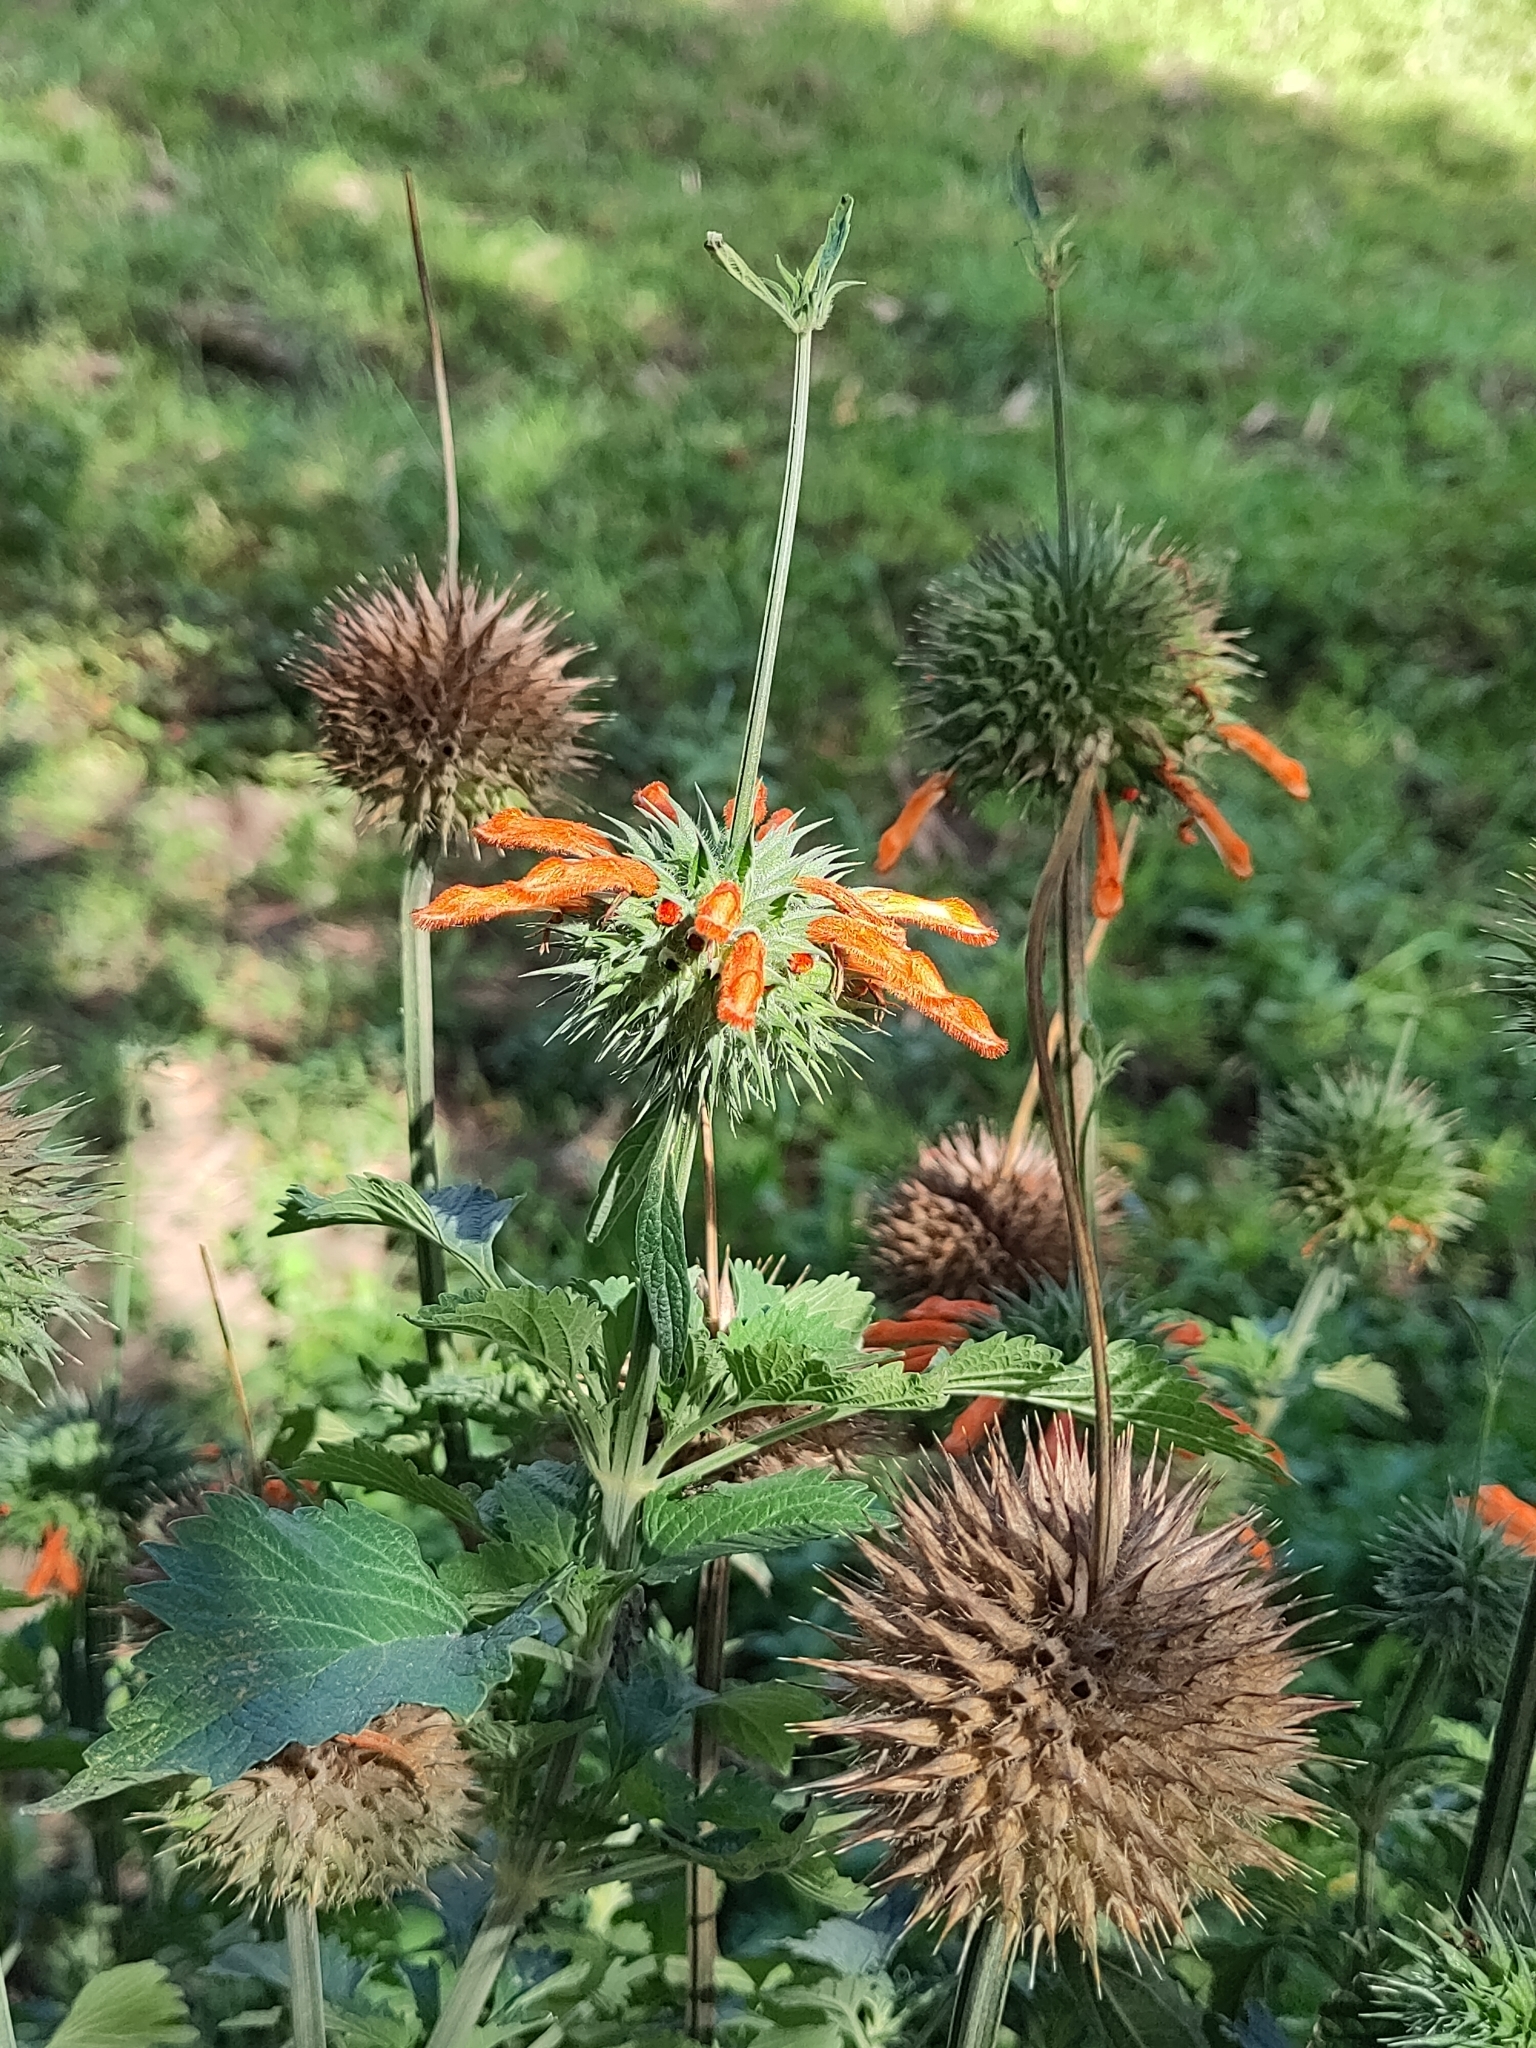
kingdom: Plantae
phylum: Tracheophyta
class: Magnoliopsida
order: Lamiales
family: Lamiaceae
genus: Leonotis
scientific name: Leonotis nepetifolia
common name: Christmas candlestick
